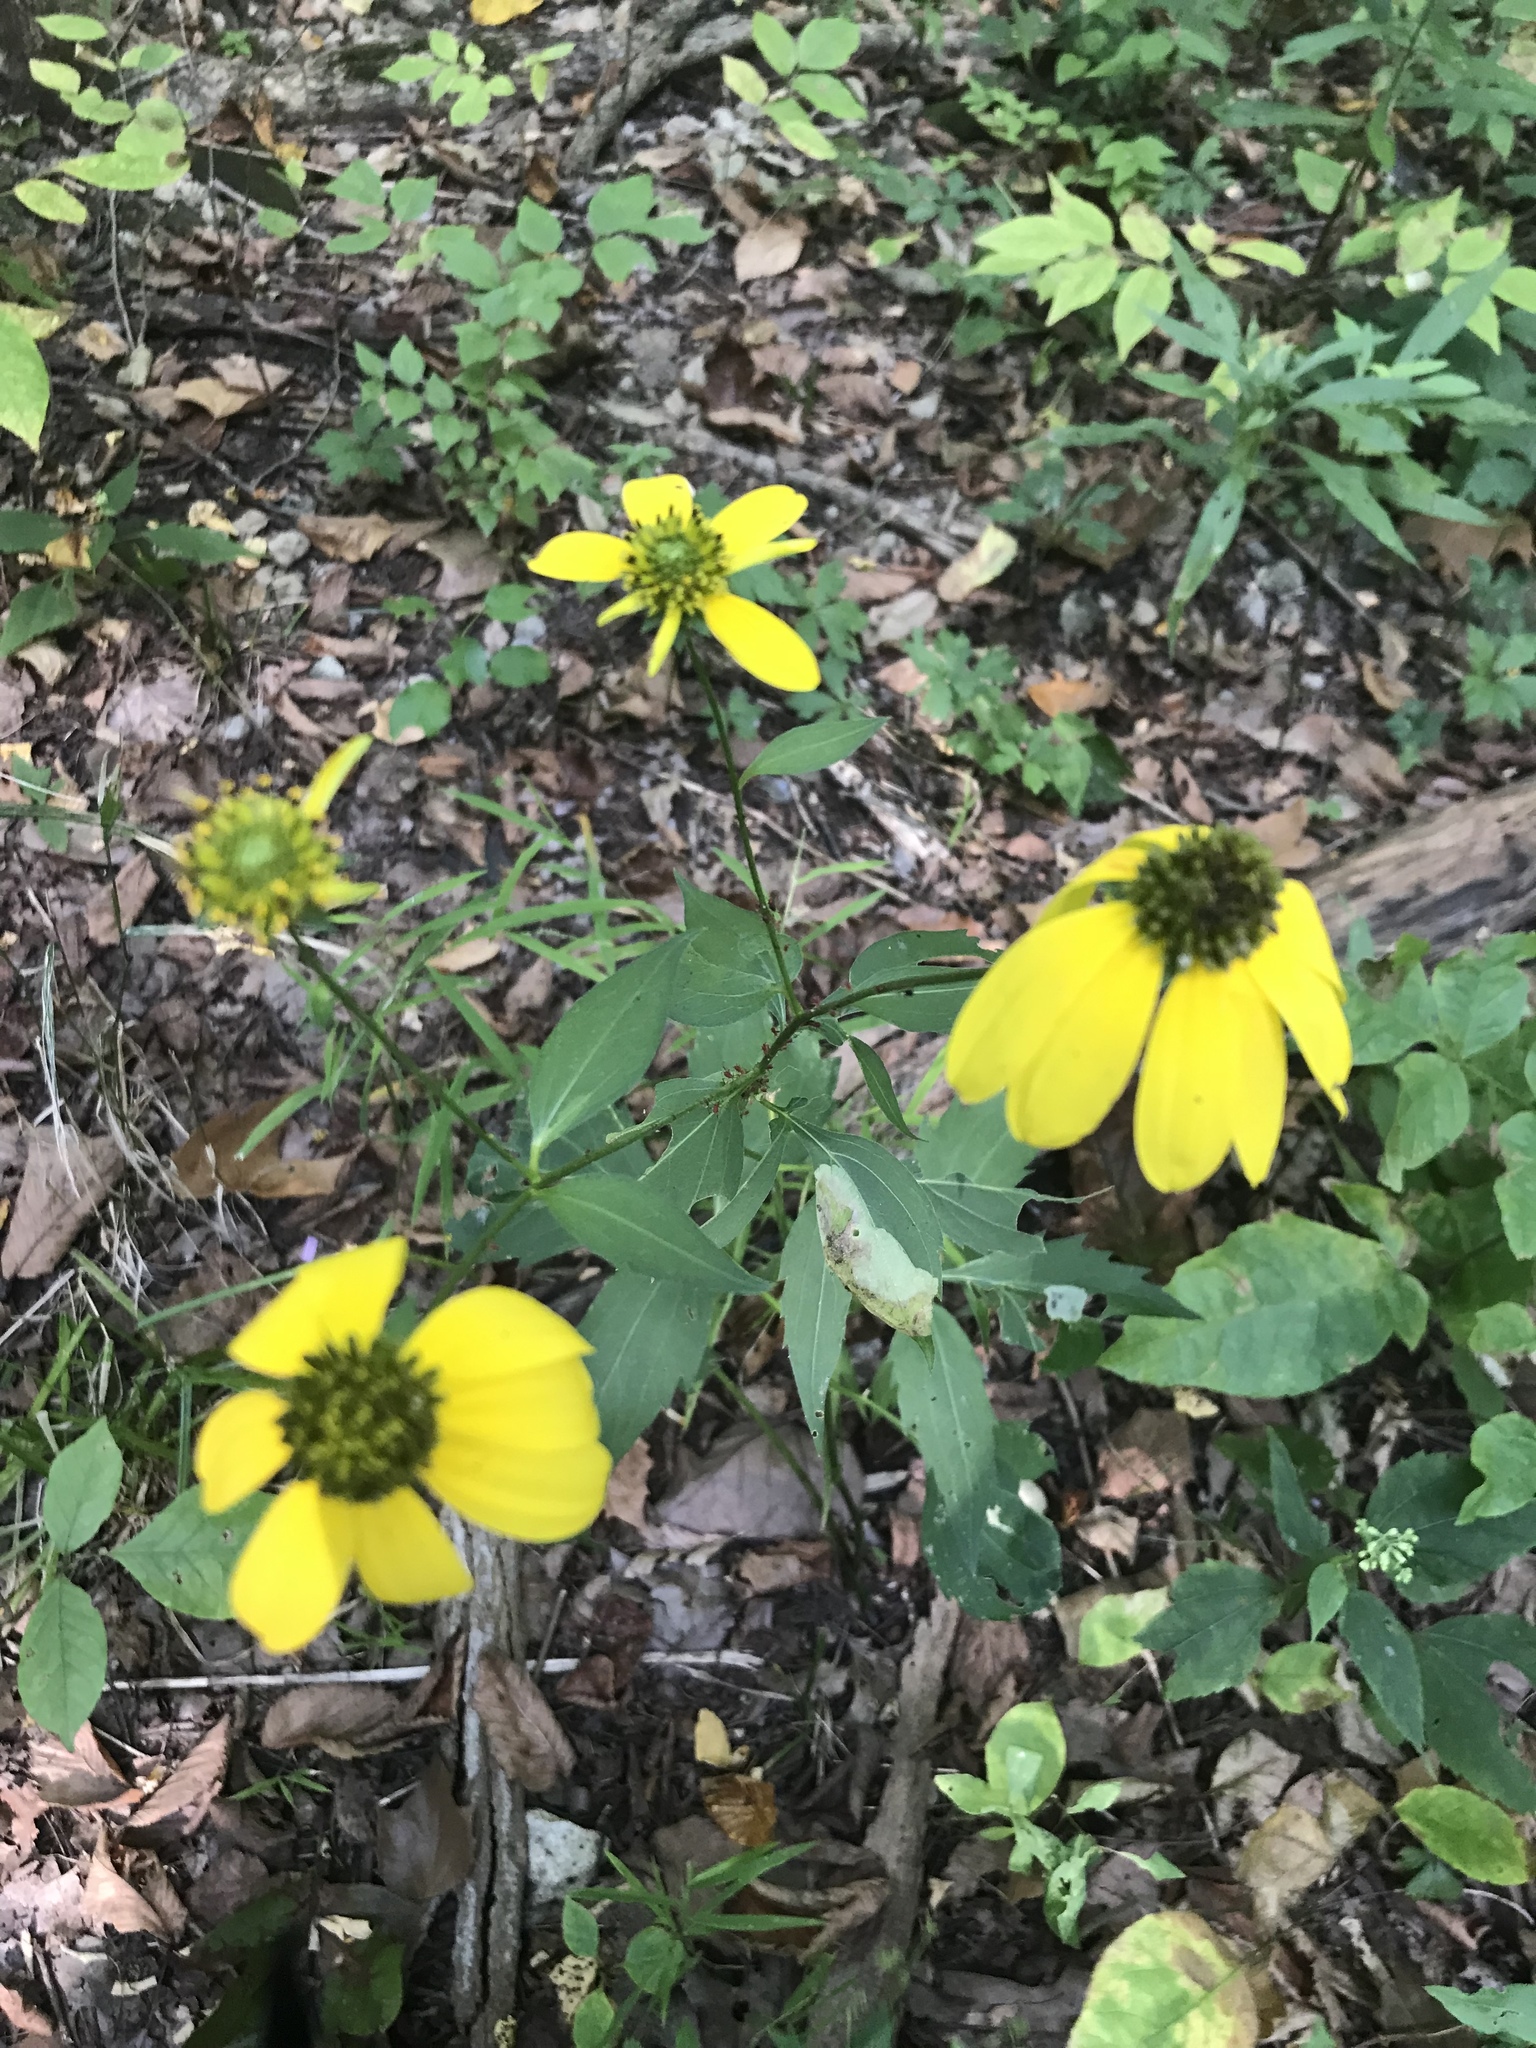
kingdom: Plantae
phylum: Tracheophyta
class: Magnoliopsida
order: Asterales
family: Asteraceae
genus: Rudbeckia
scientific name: Rudbeckia laciniata
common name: Coneflower
